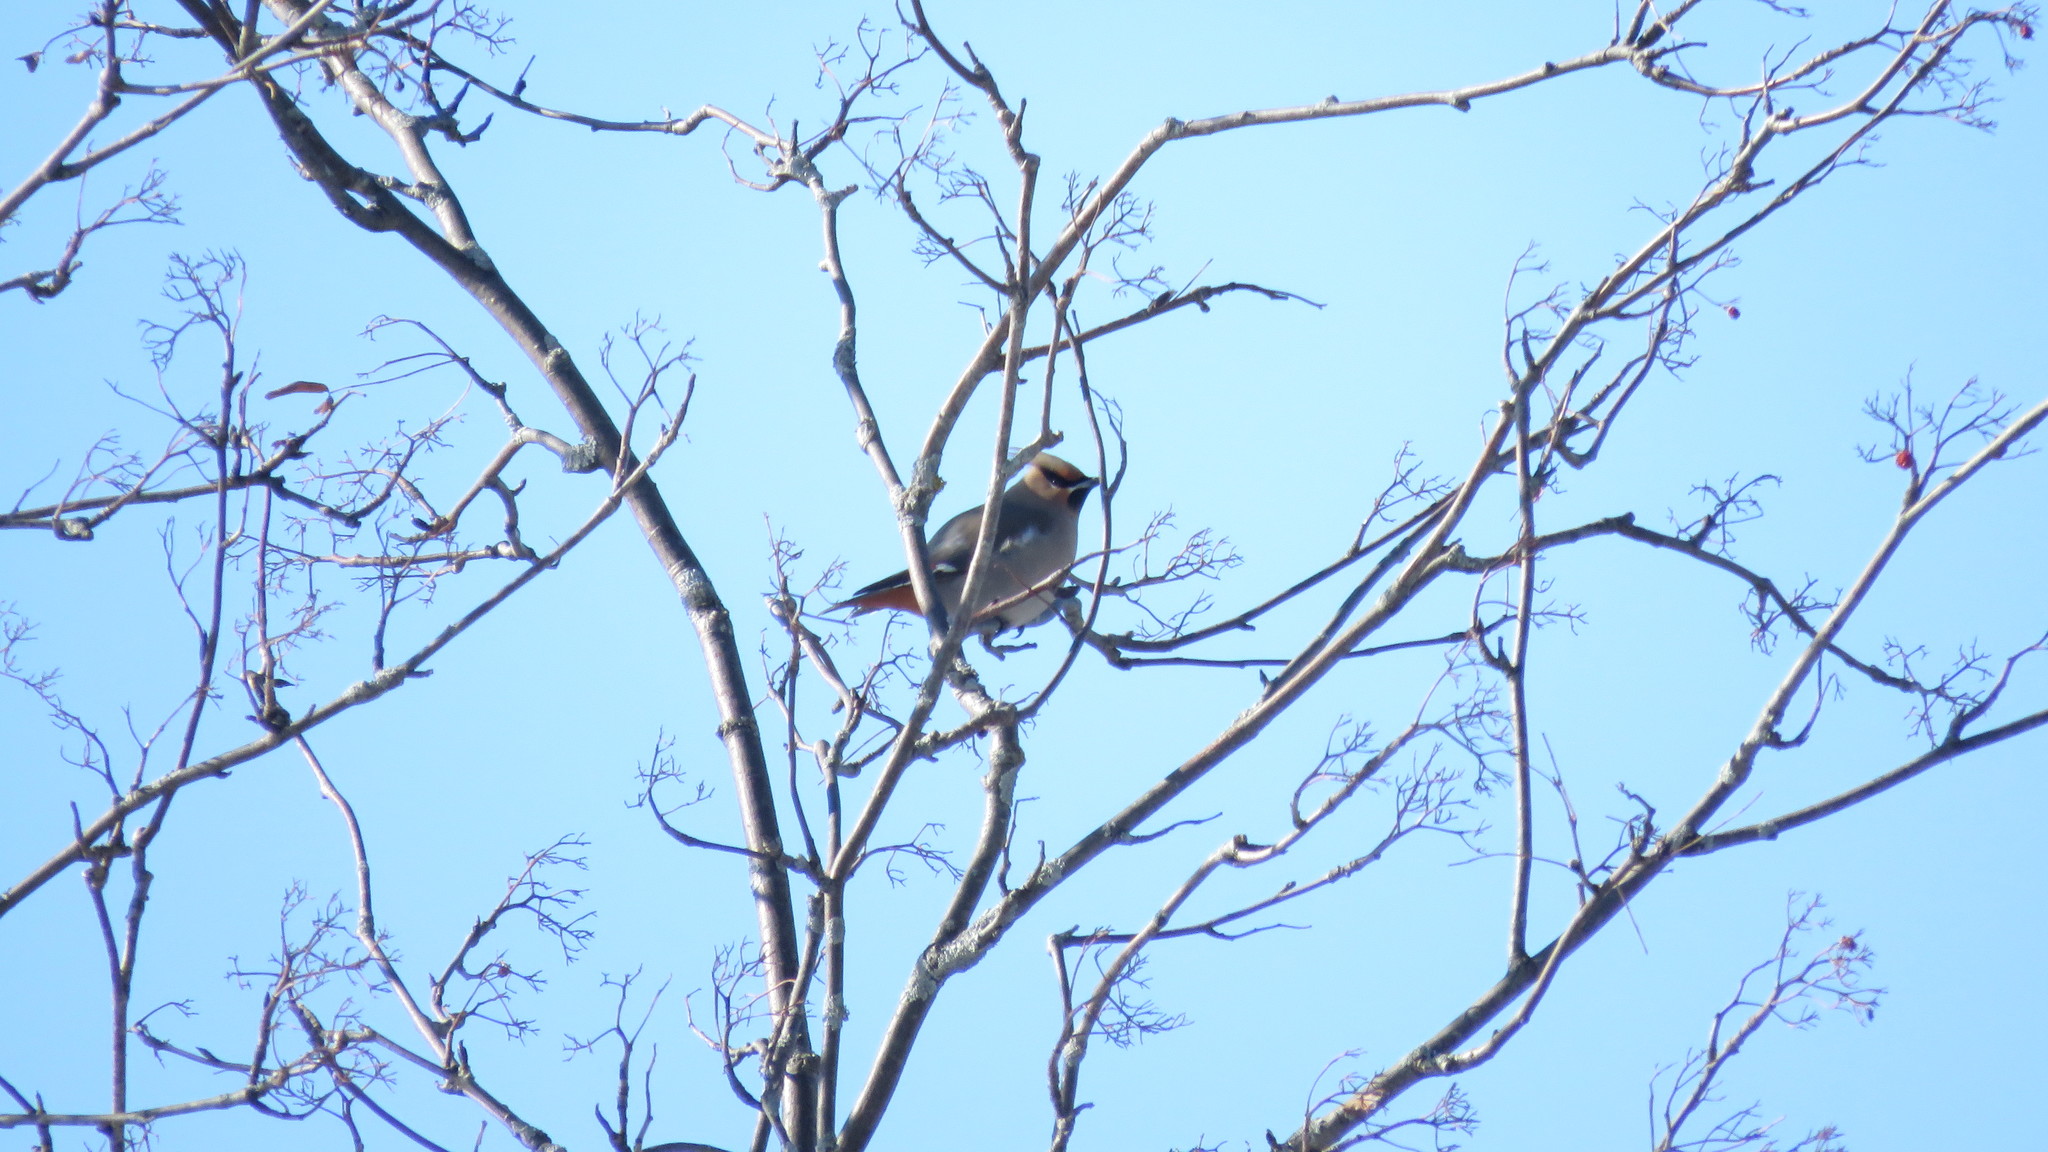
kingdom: Animalia
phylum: Chordata
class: Aves
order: Passeriformes
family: Bombycillidae
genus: Bombycilla
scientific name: Bombycilla garrulus
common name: Bohemian waxwing
